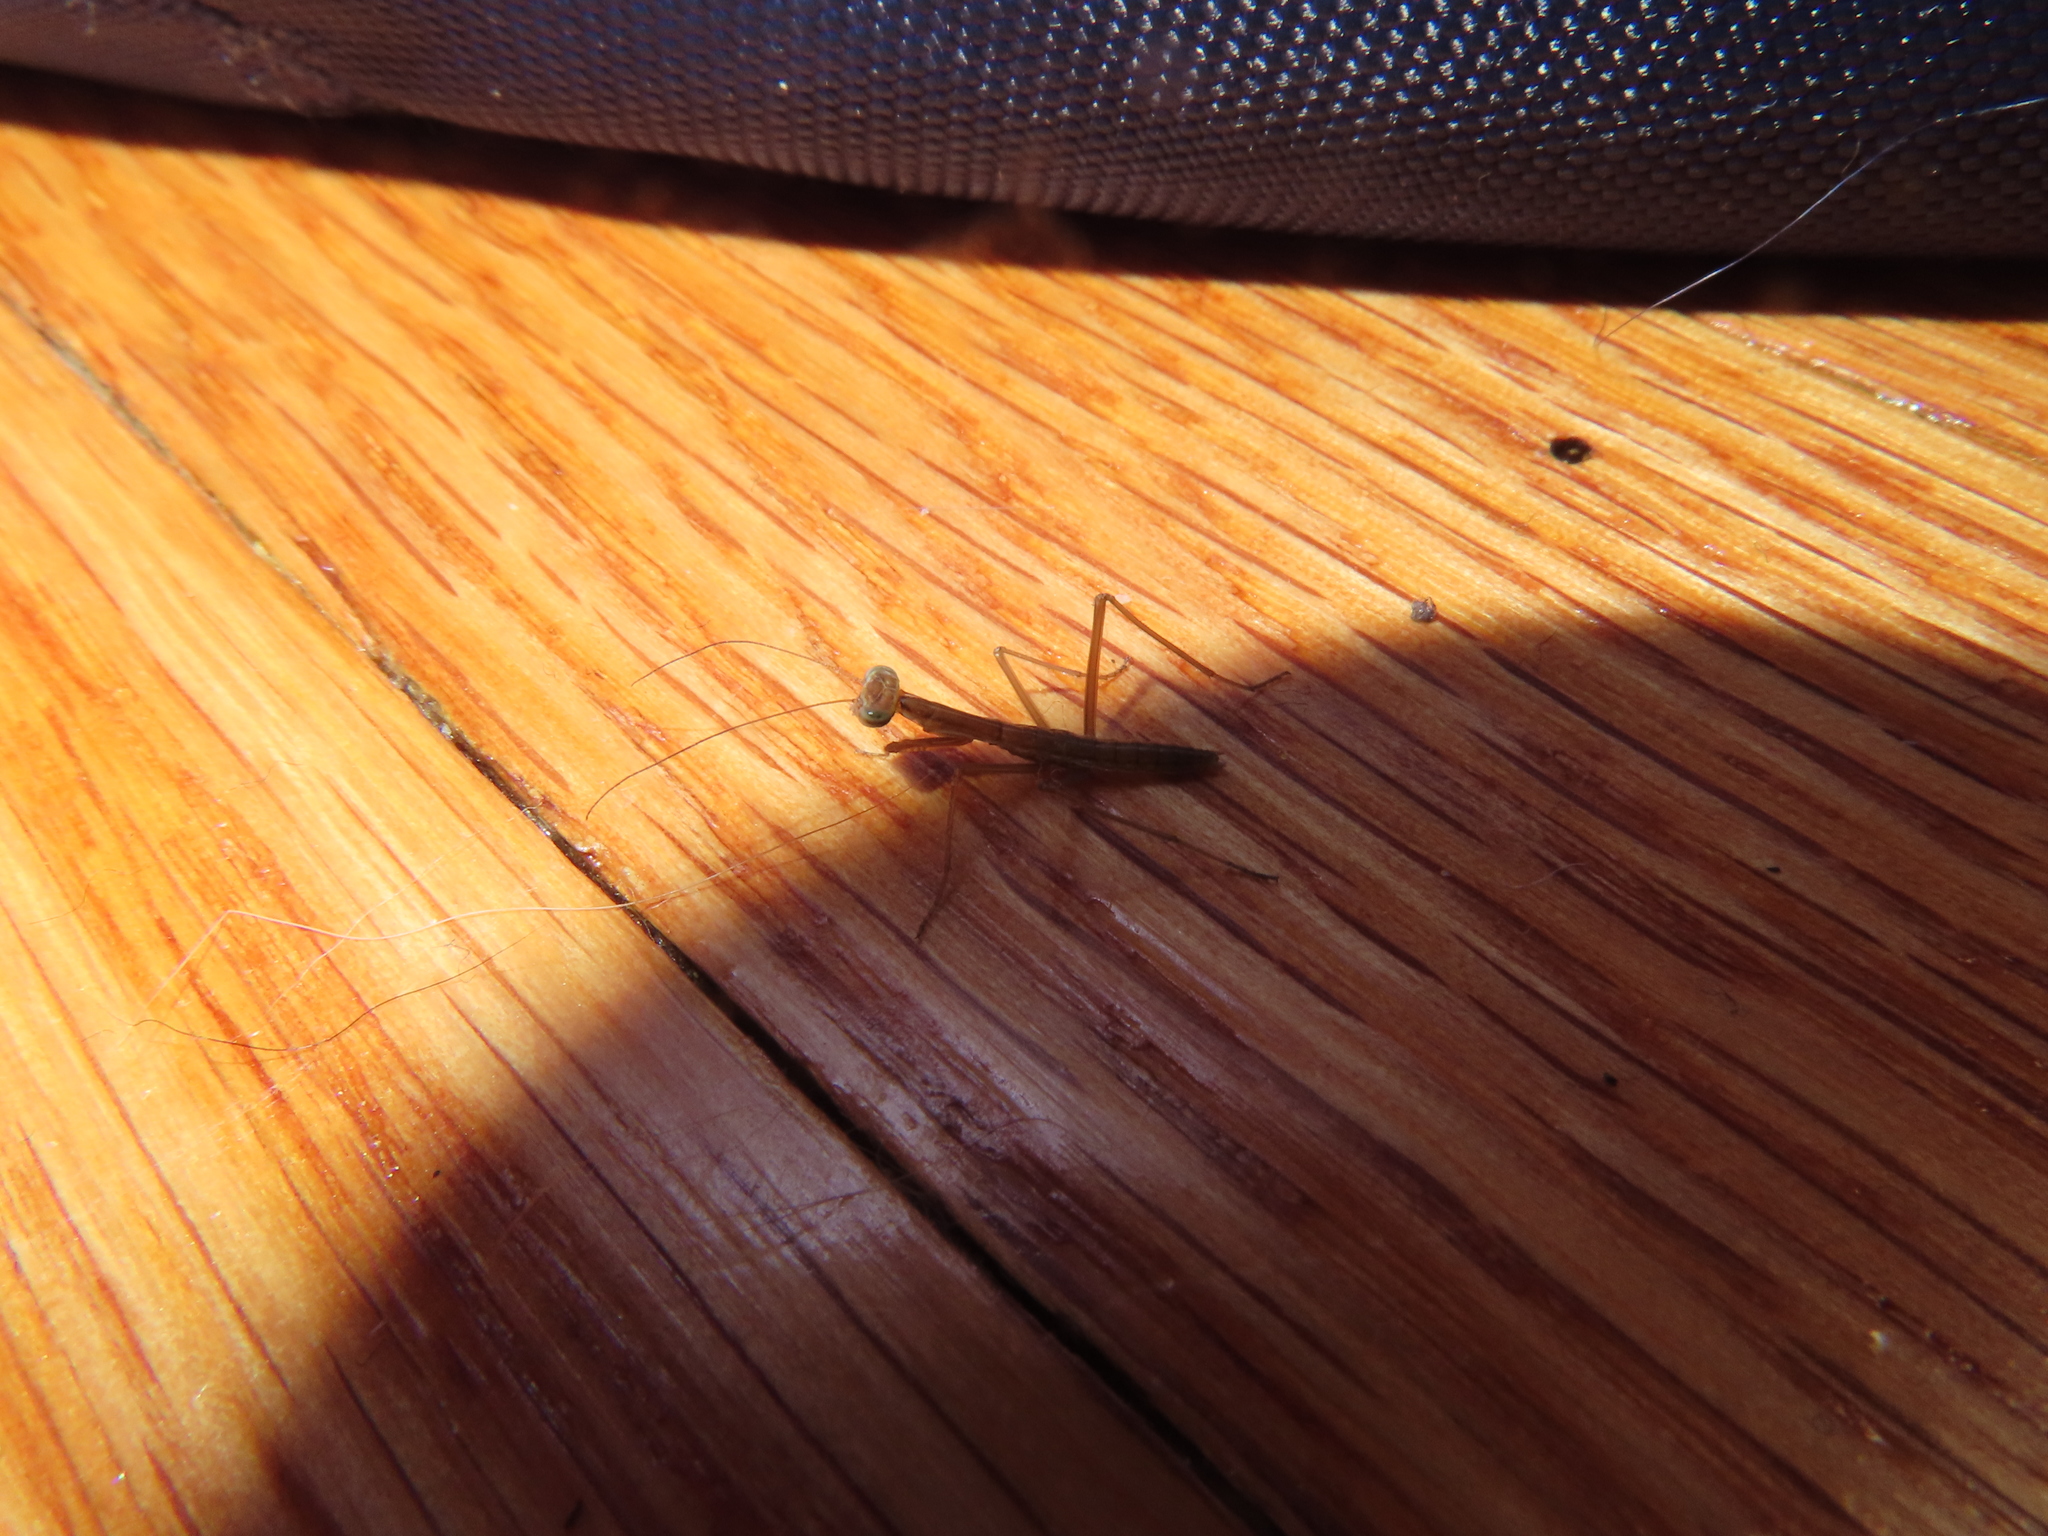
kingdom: Animalia
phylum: Arthropoda
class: Insecta
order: Mantodea
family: Mantidae
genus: Tenodera
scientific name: Tenodera sinensis
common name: Chinese mantis
